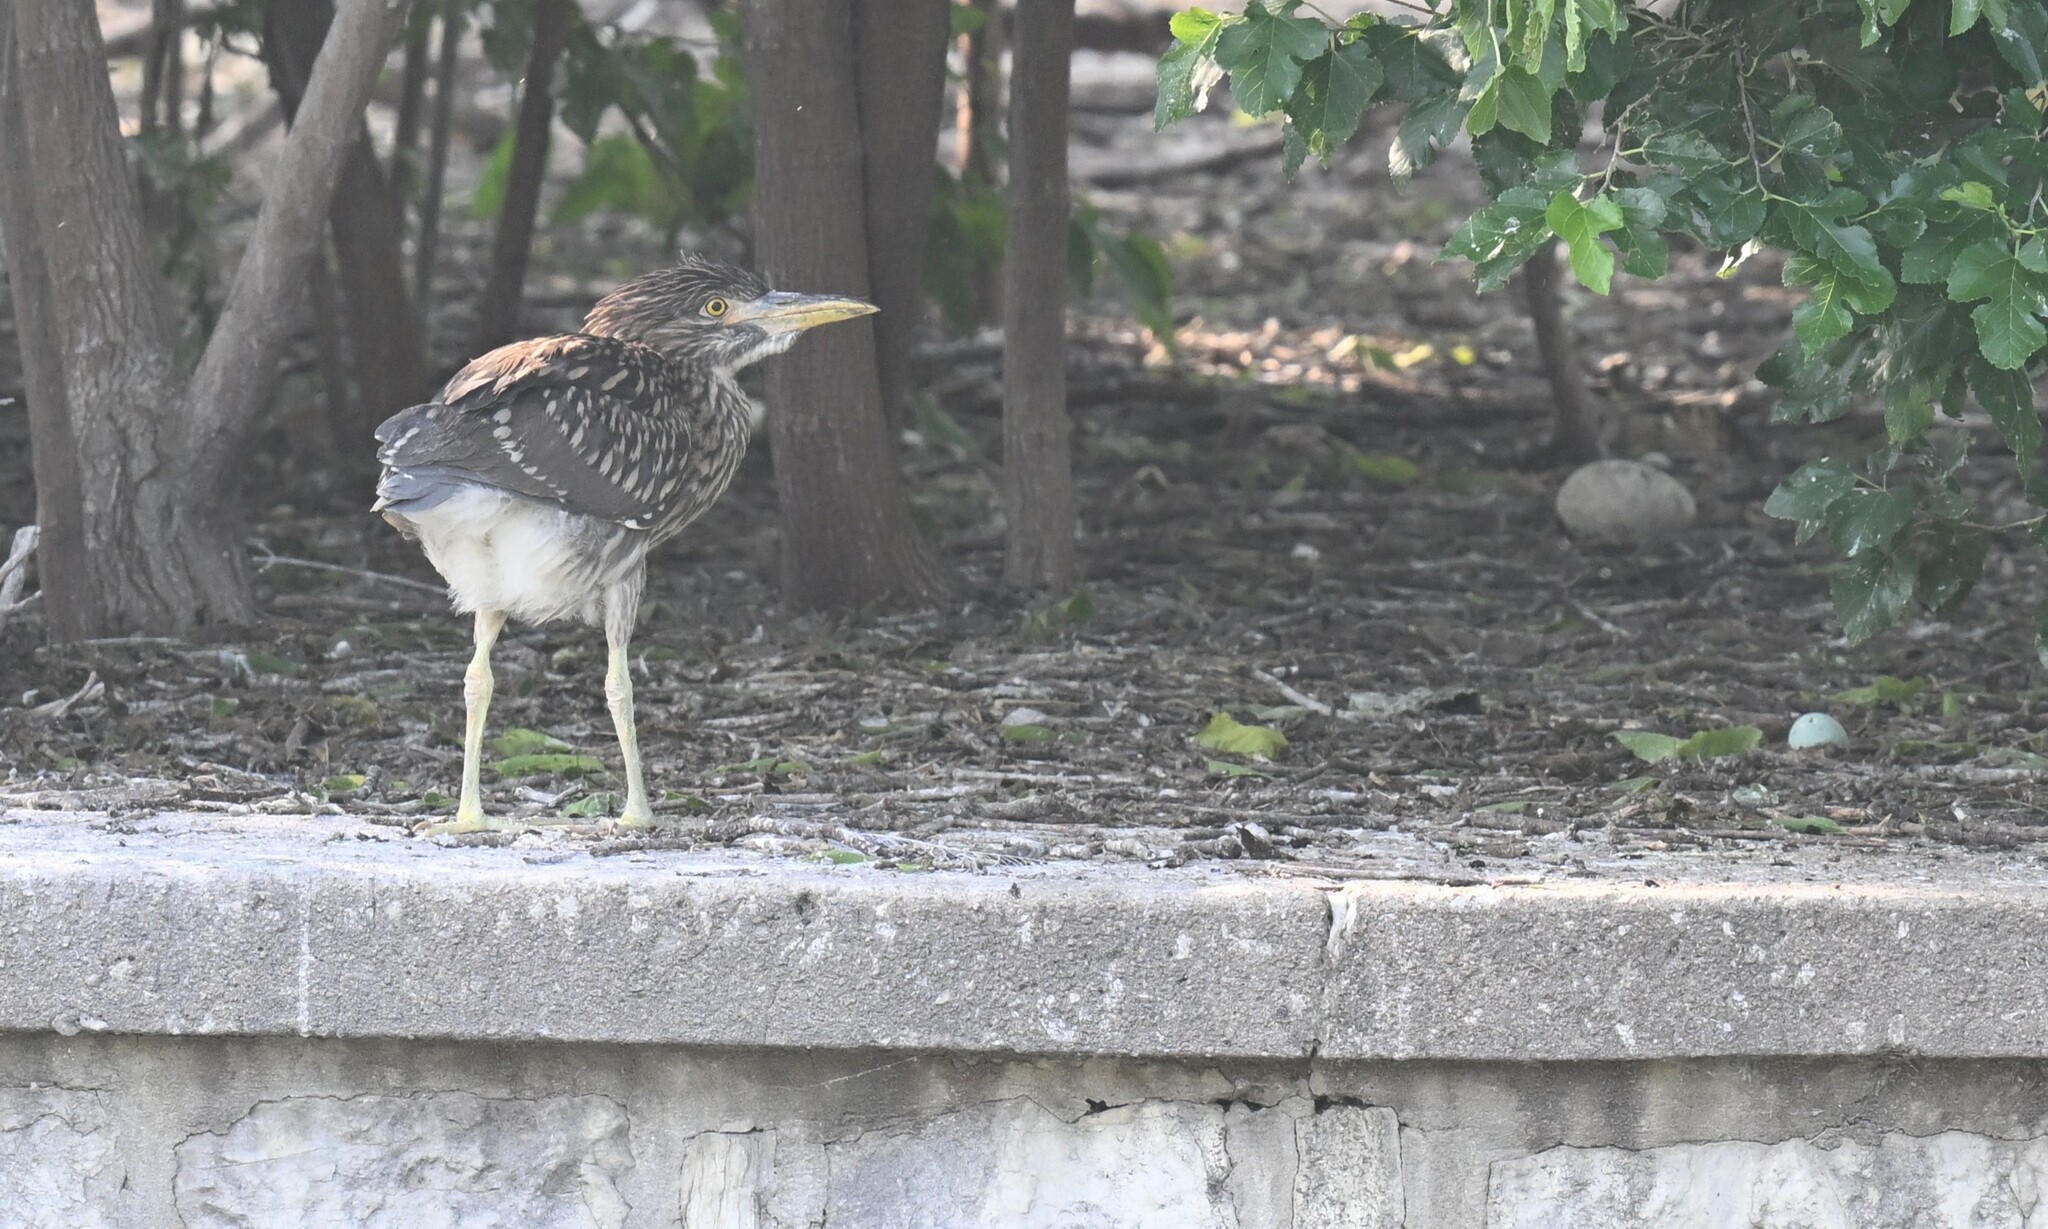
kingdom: Animalia
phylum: Chordata
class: Aves
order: Pelecaniformes
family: Ardeidae
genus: Nycticorax
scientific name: Nycticorax nycticorax
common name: Black-crowned night heron
